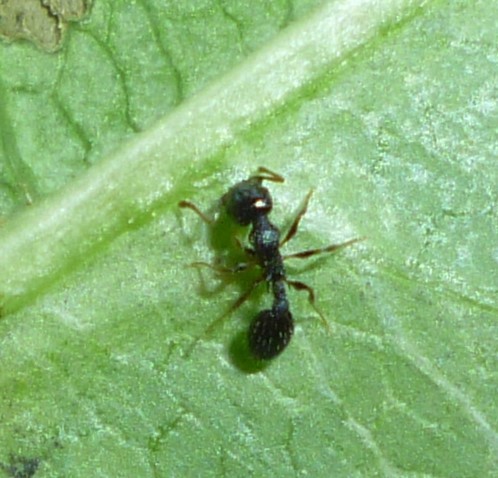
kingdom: Animalia
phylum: Arthropoda
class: Insecta
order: Hymenoptera
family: Formicidae
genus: Temnothorax
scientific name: Temnothorax longispinosus
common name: Long-spined acorn ant
